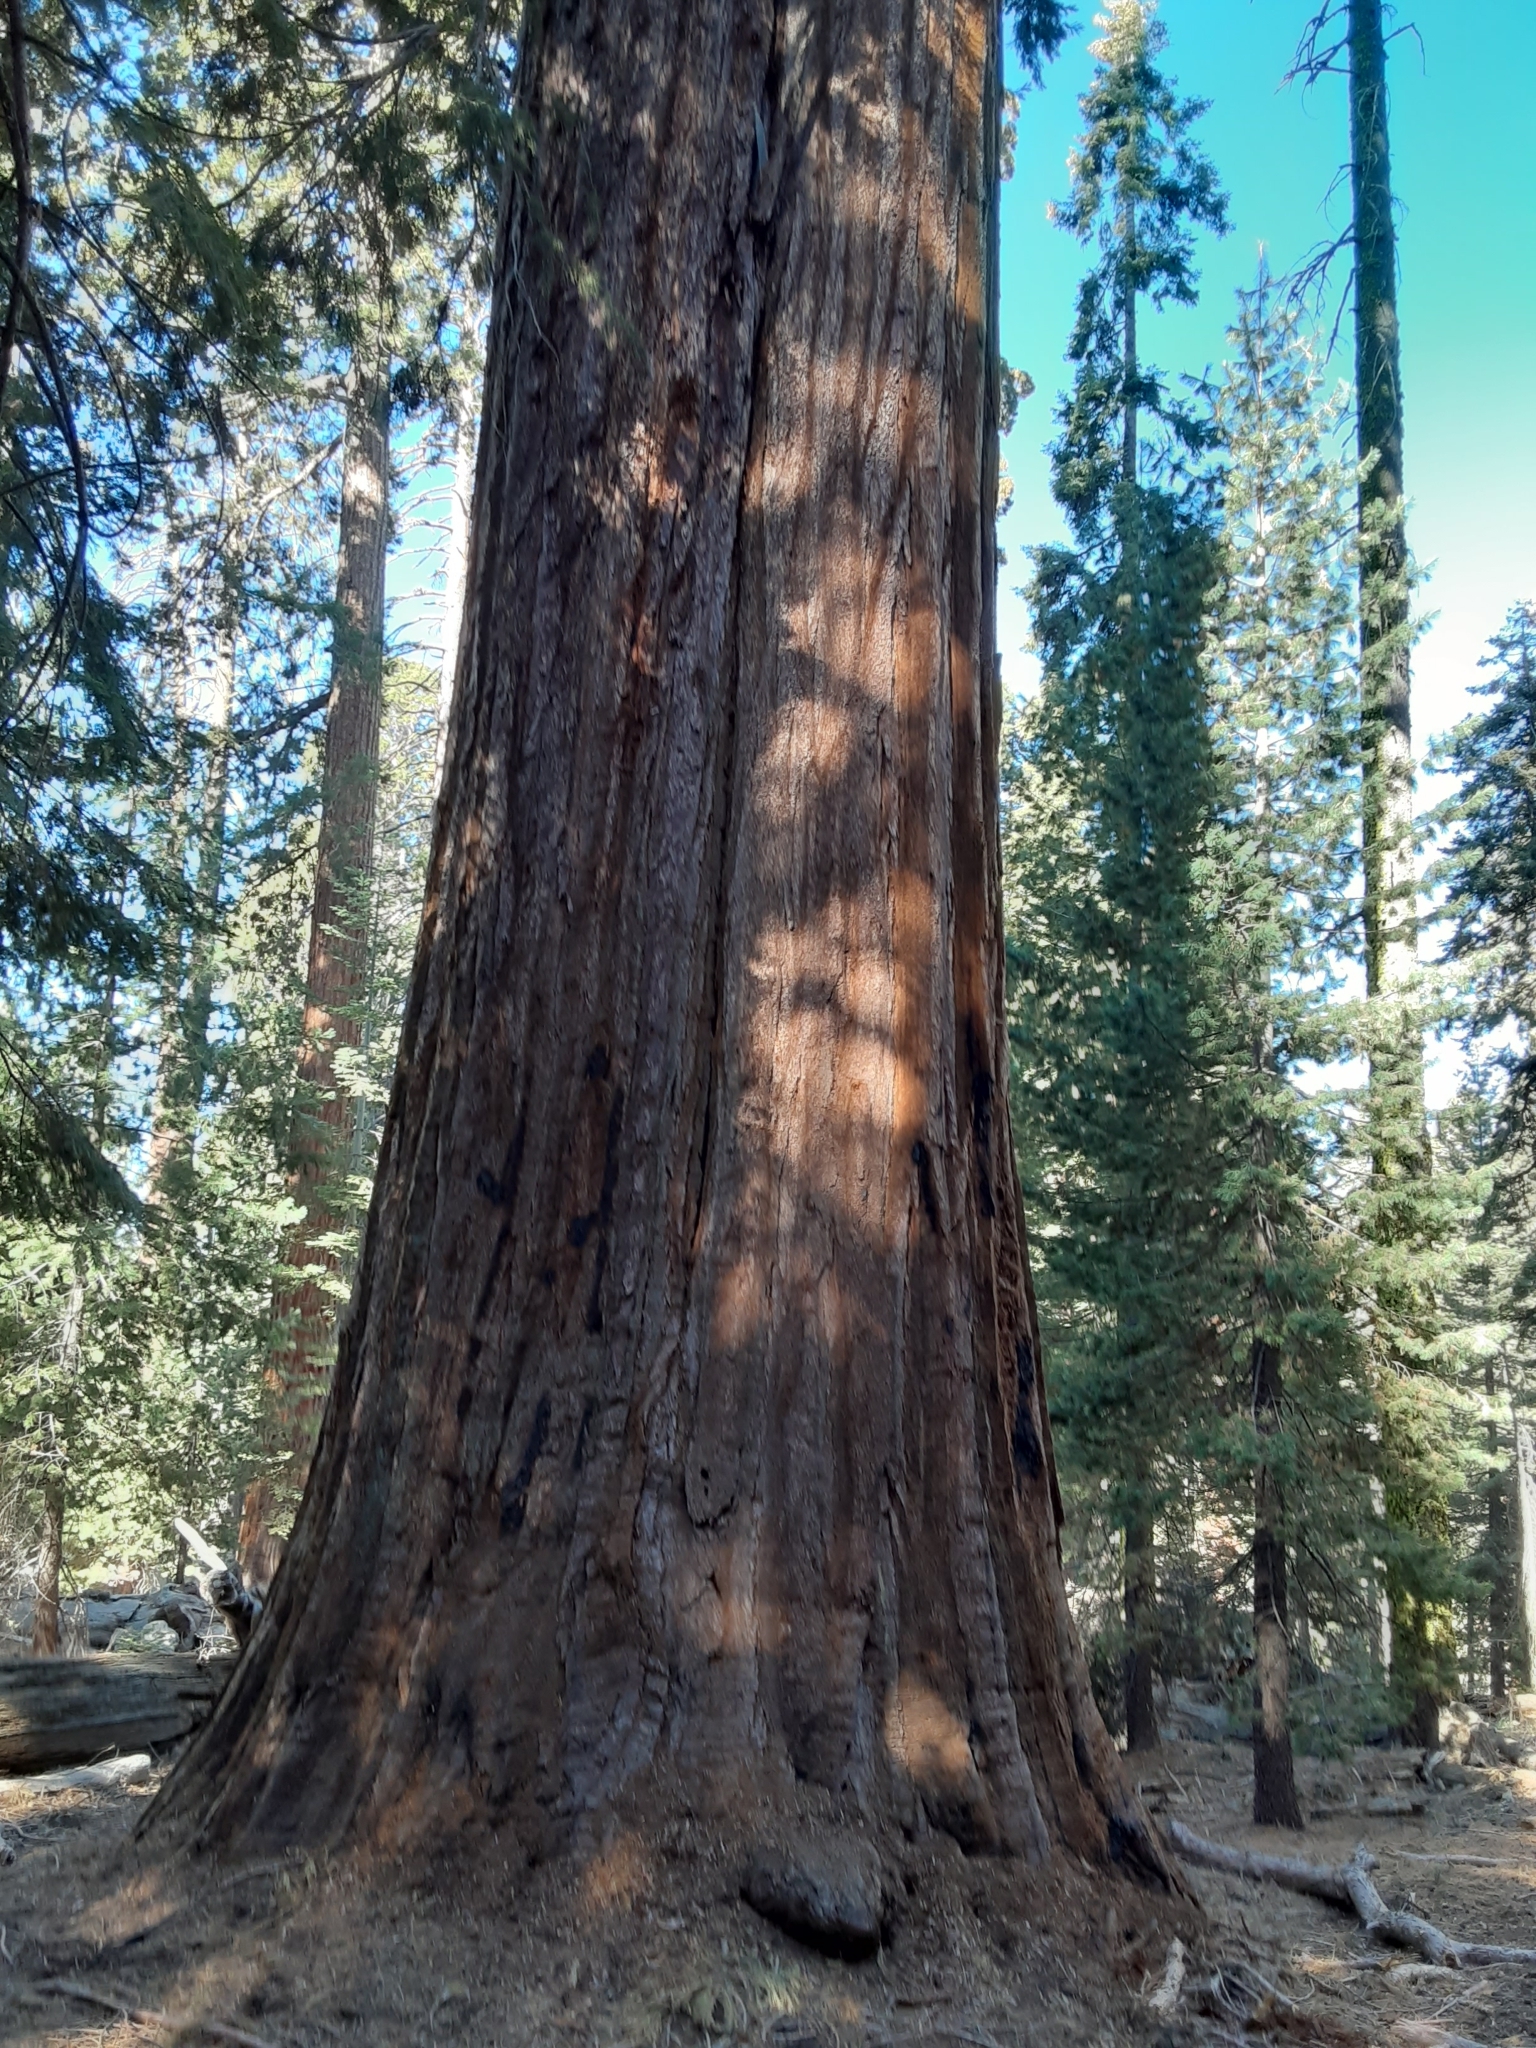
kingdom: Plantae
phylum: Tracheophyta
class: Pinopsida
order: Pinales
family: Cupressaceae
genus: Sequoiadendron
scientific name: Sequoiadendron giganteum
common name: Wellingtonia
